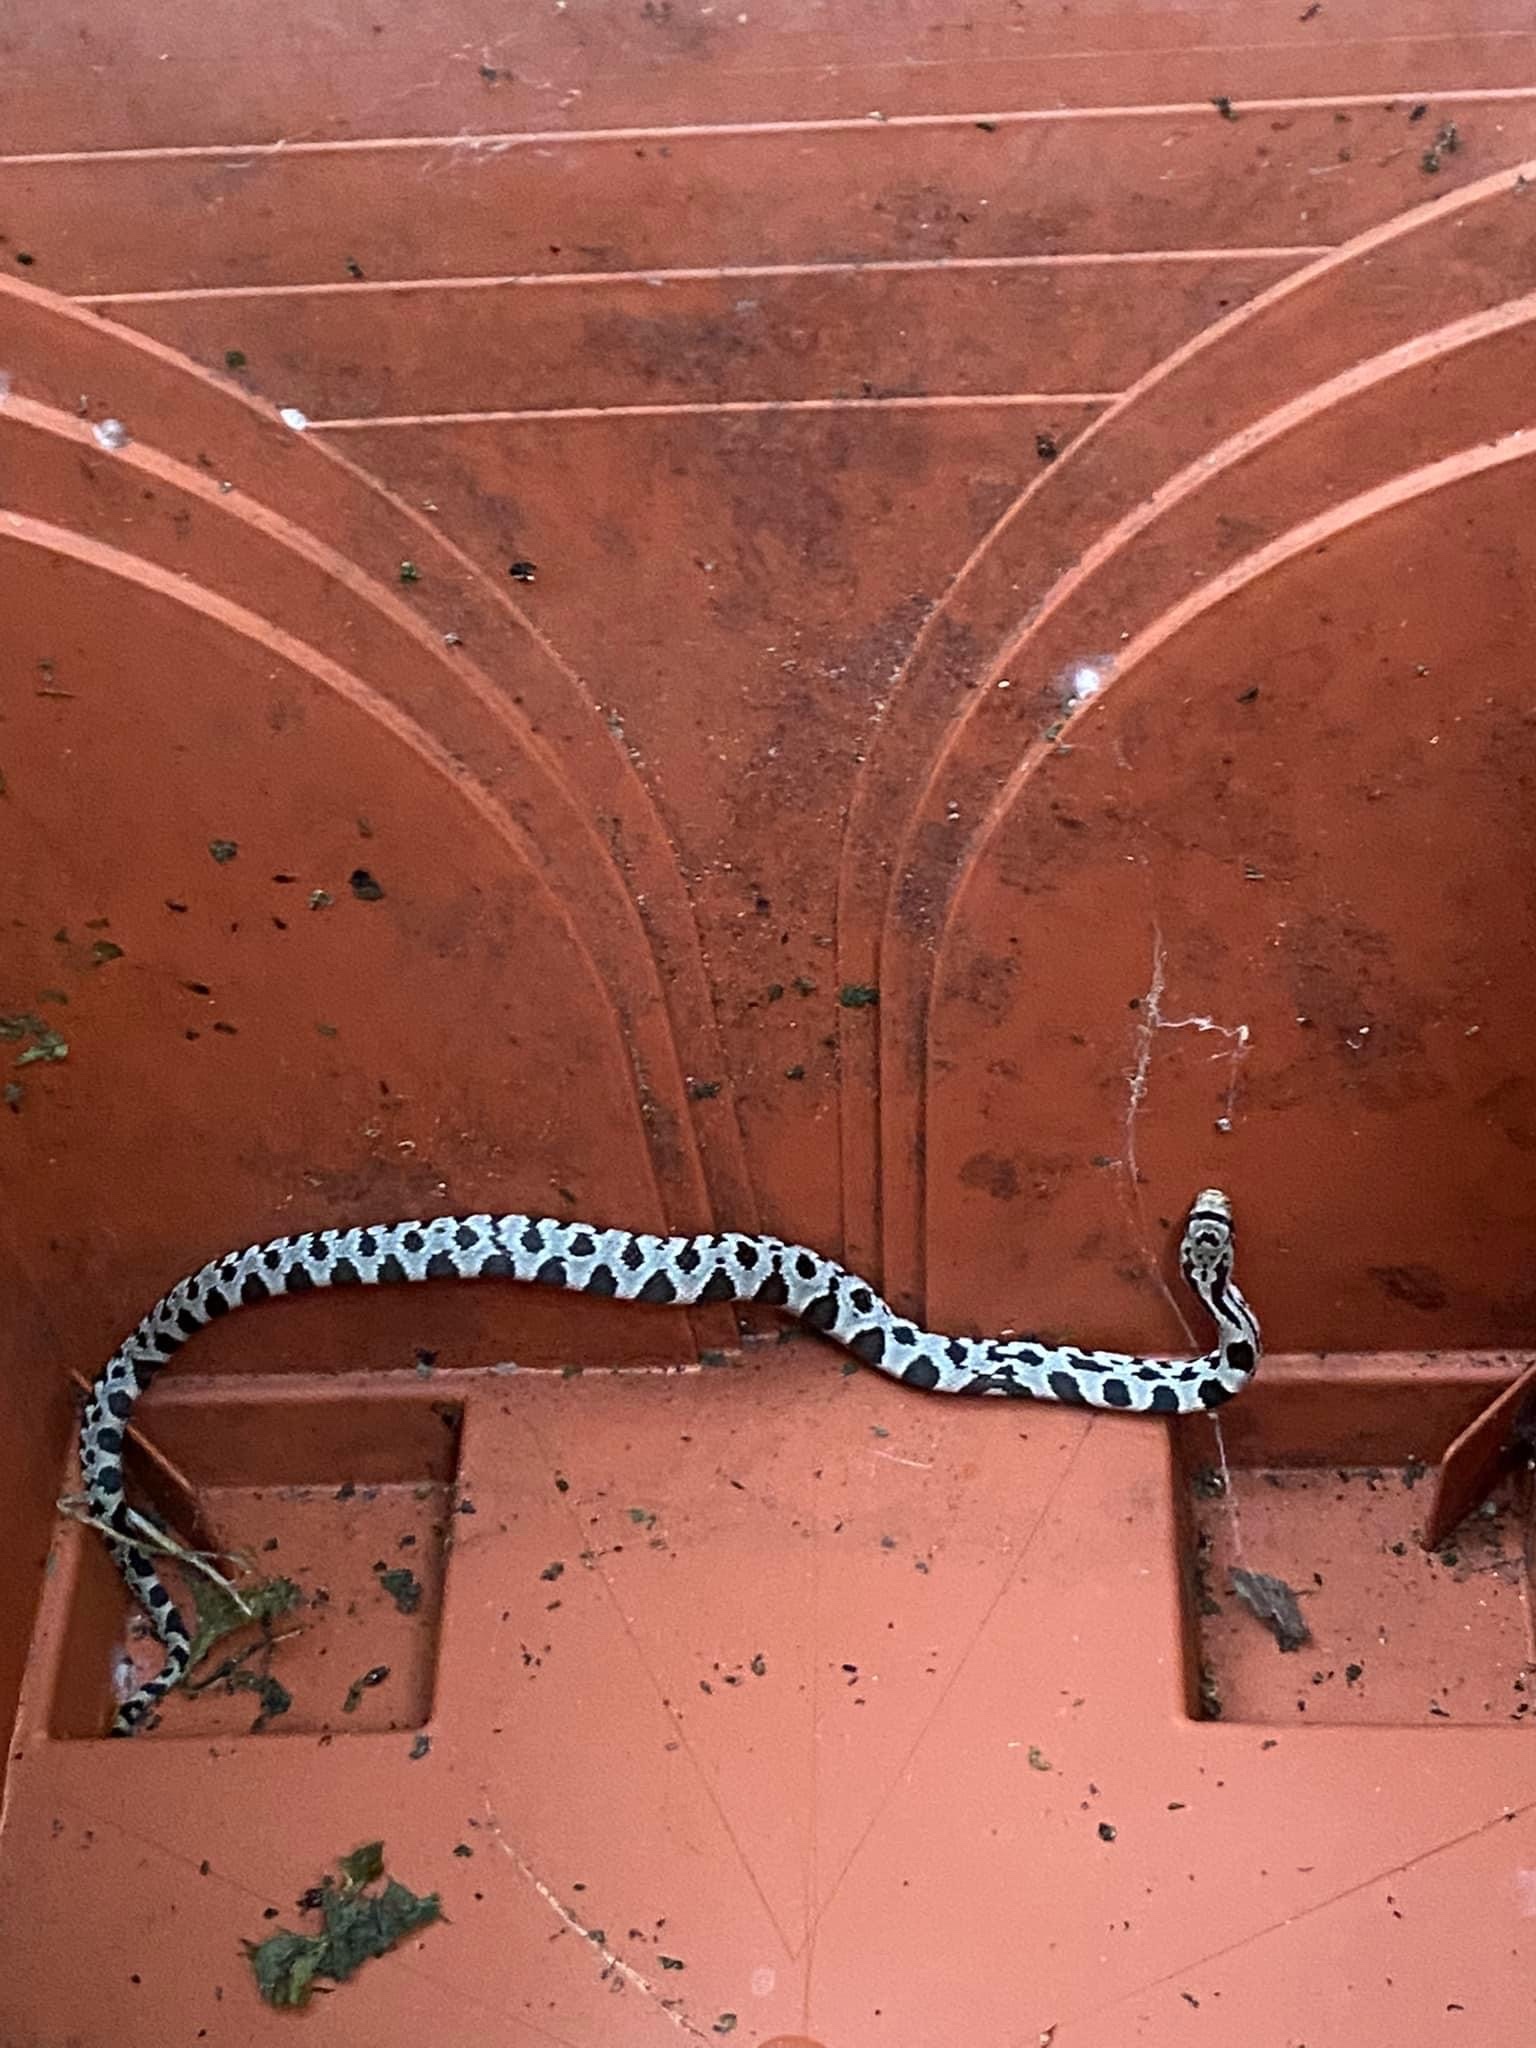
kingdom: Animalia
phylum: Chordata
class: Squamata
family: Colubridae
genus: Pantherophis
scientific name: Pantherophis vulpinus
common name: Eastern fox snake
